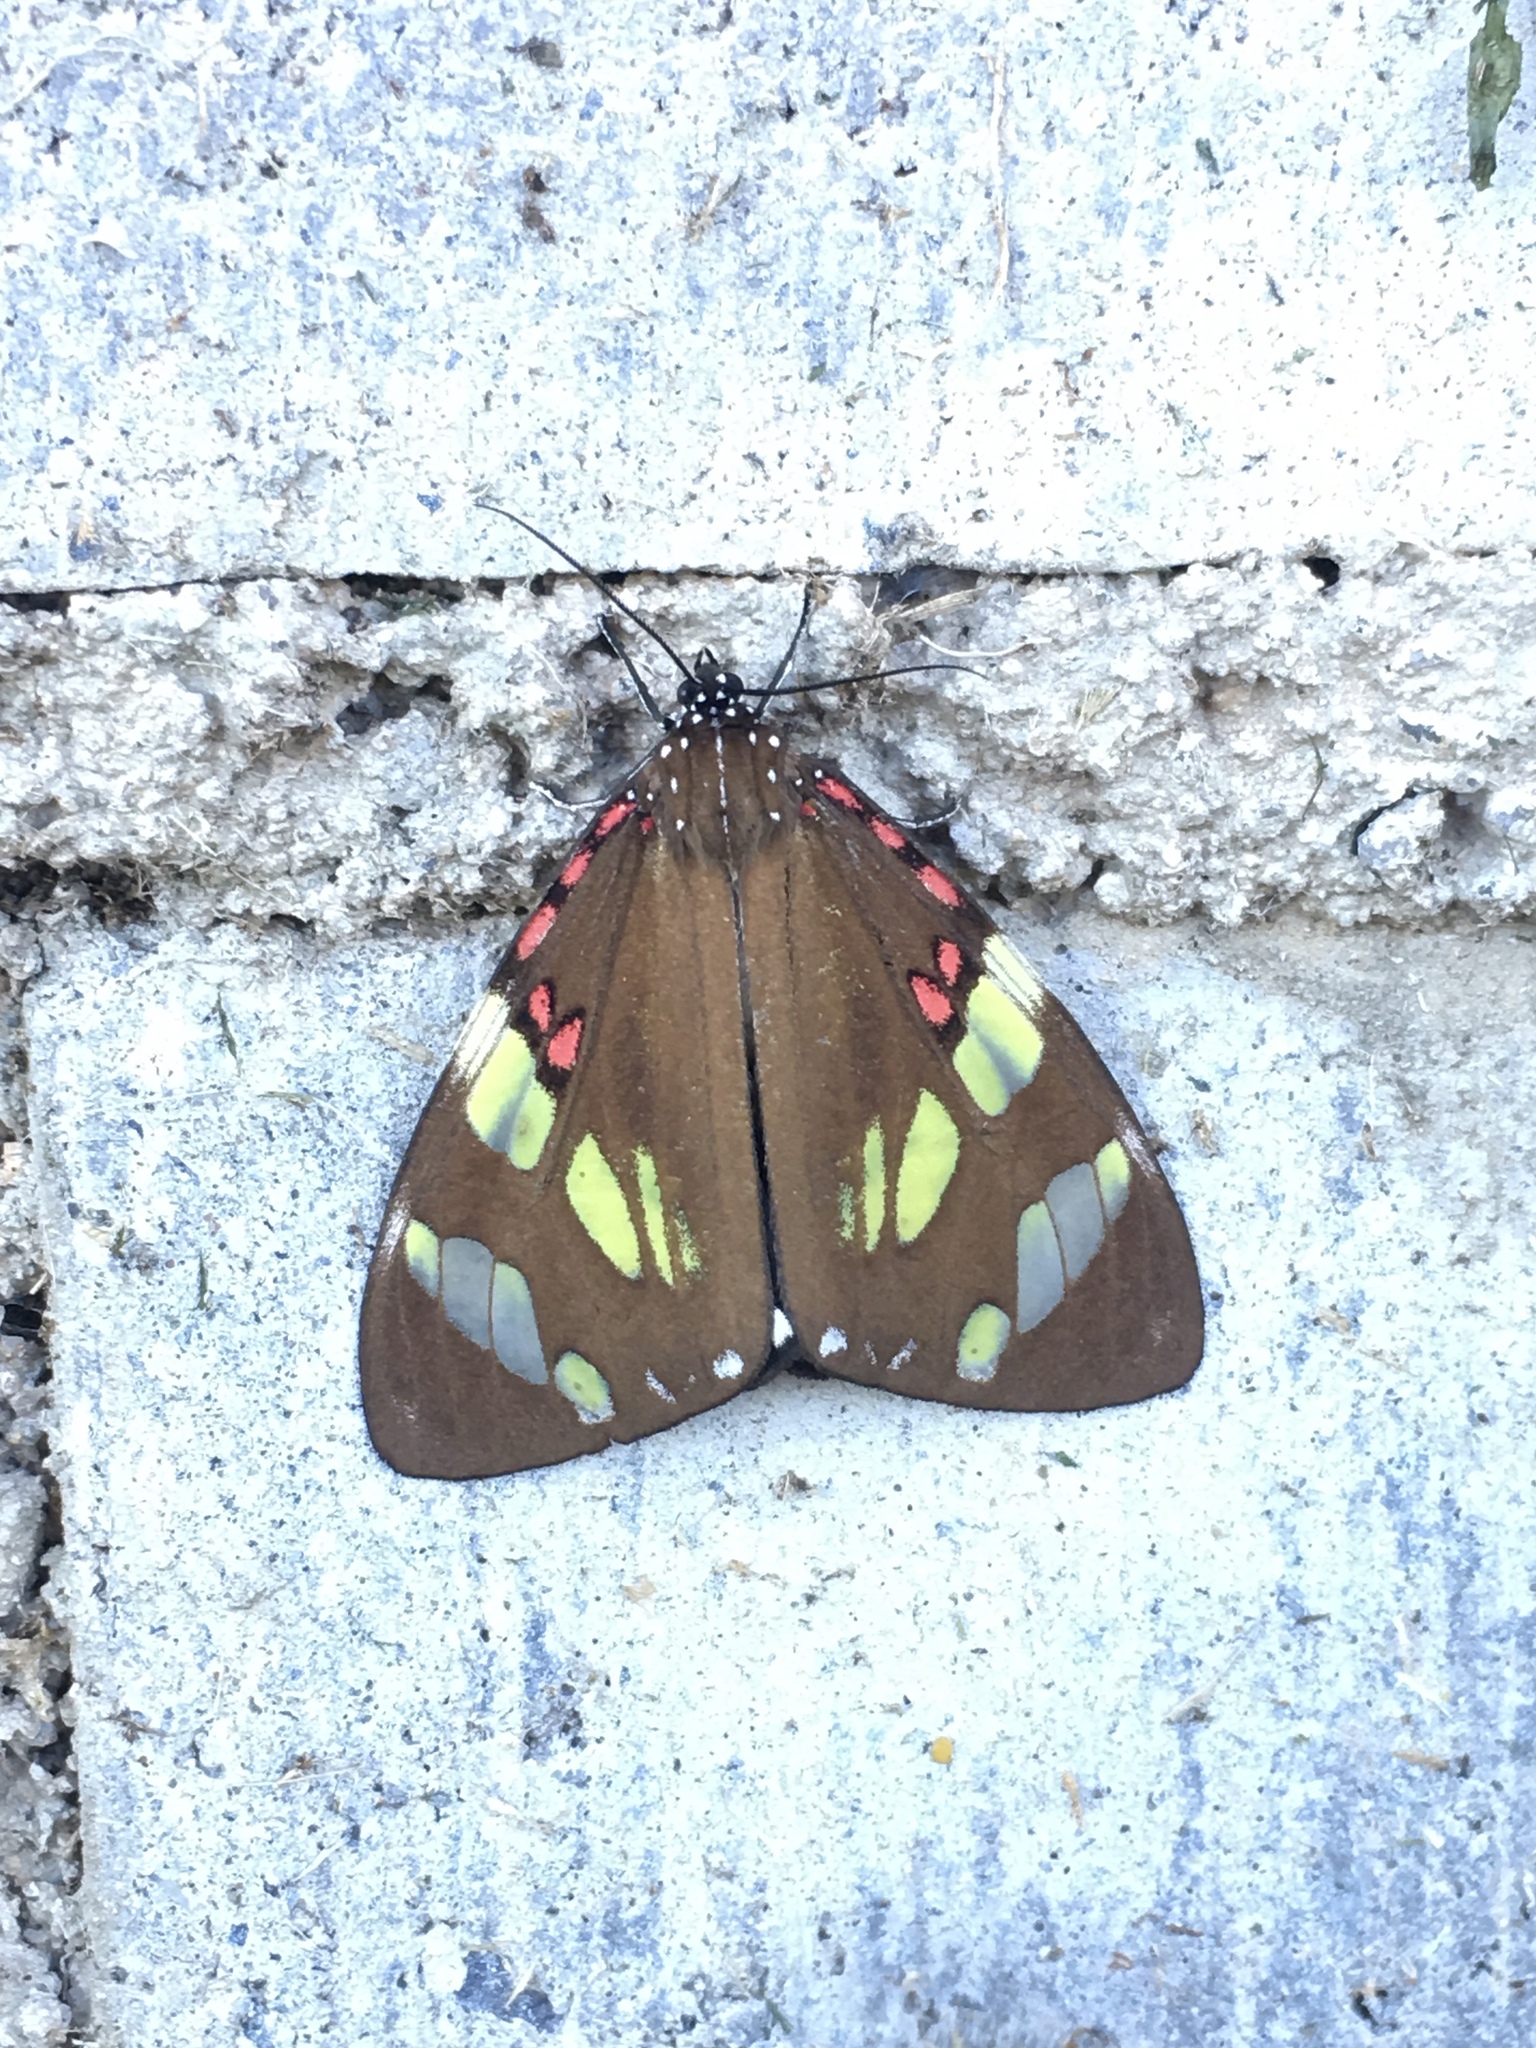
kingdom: Animalia
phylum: Arthropoda
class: Insecta
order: Lepidoptera
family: Erebidae
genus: Phaloe
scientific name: Phaloe cruenta
